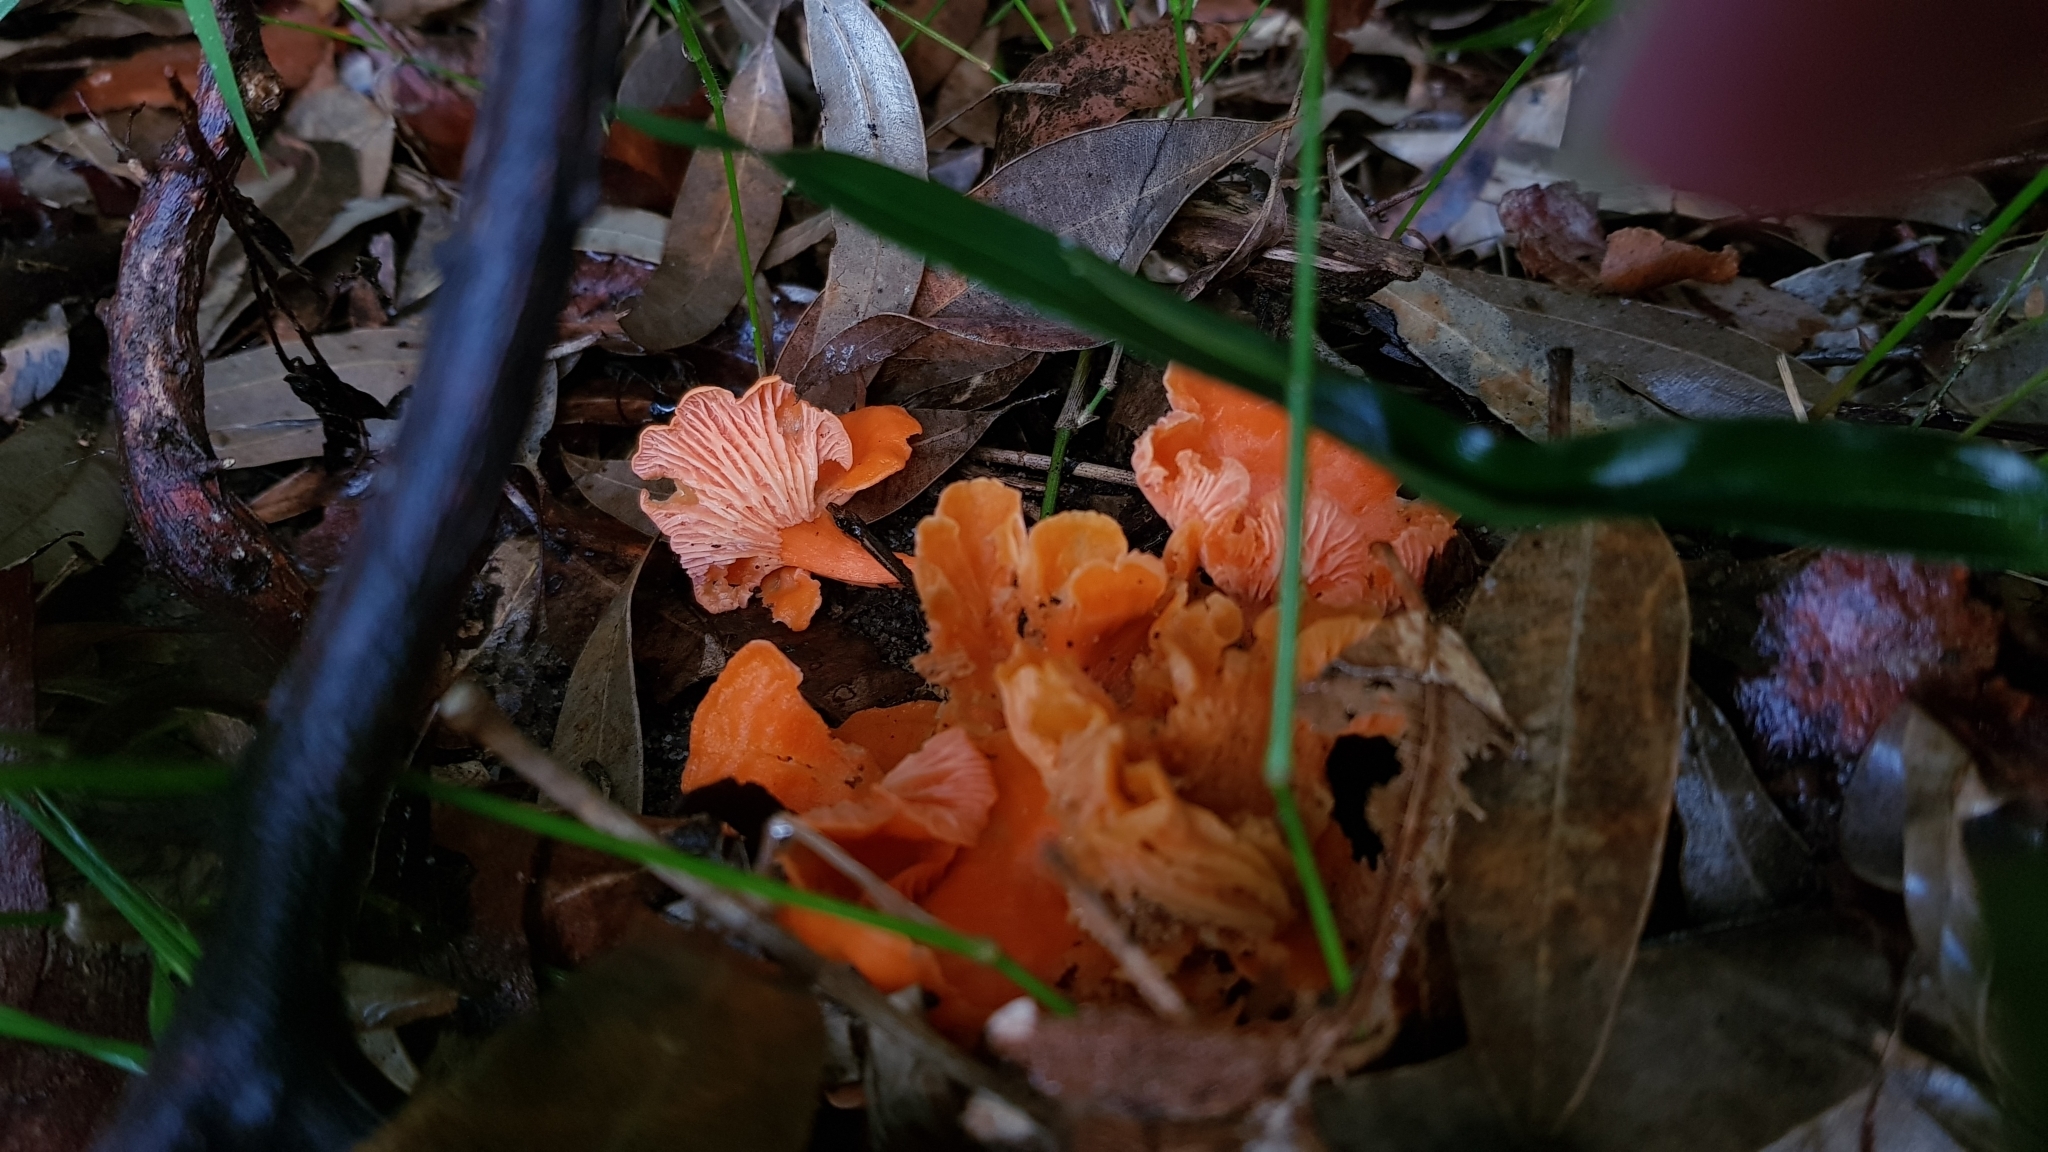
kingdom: Fungi
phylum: Basidiomycota
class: Agaricomycetes
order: Cantharellales
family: Hydnaceae
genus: Cantharellus
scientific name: Cantharellus
